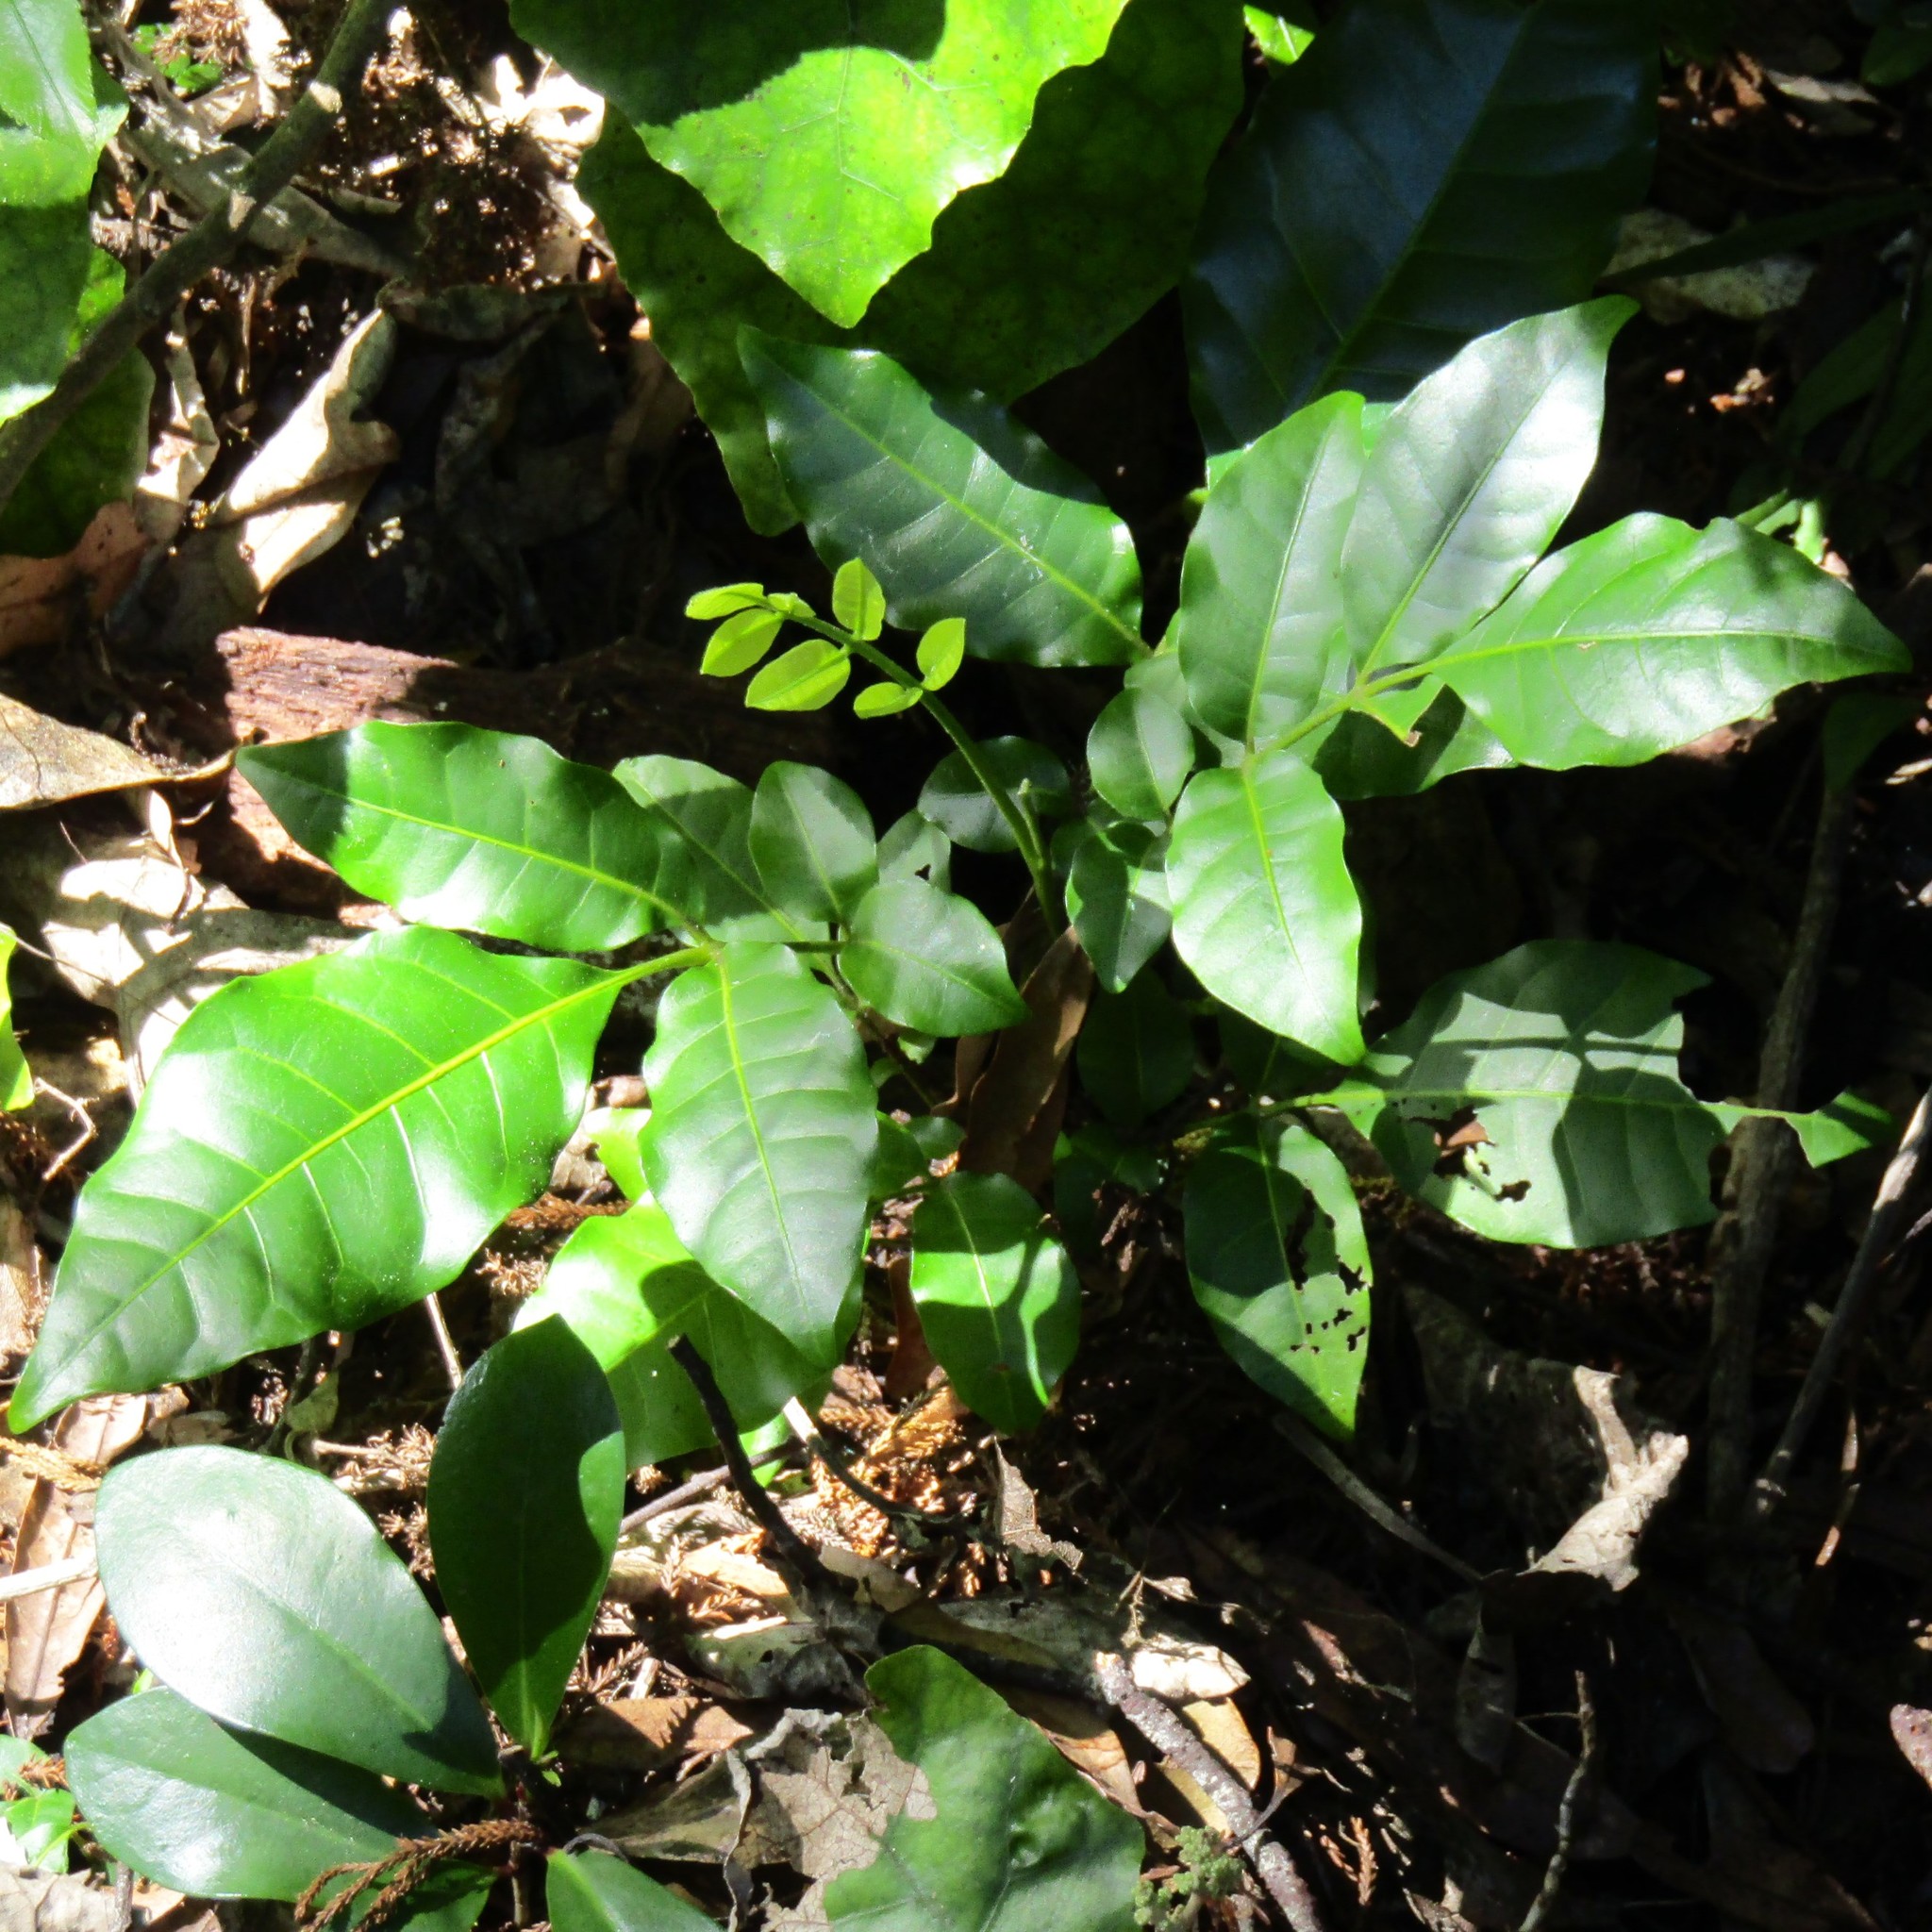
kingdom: Plantae
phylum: Tracheophyta
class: Magnoliopsida
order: Sapindales
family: Meliaceae
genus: Didymocheton
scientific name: Didymocheton spectabilis
